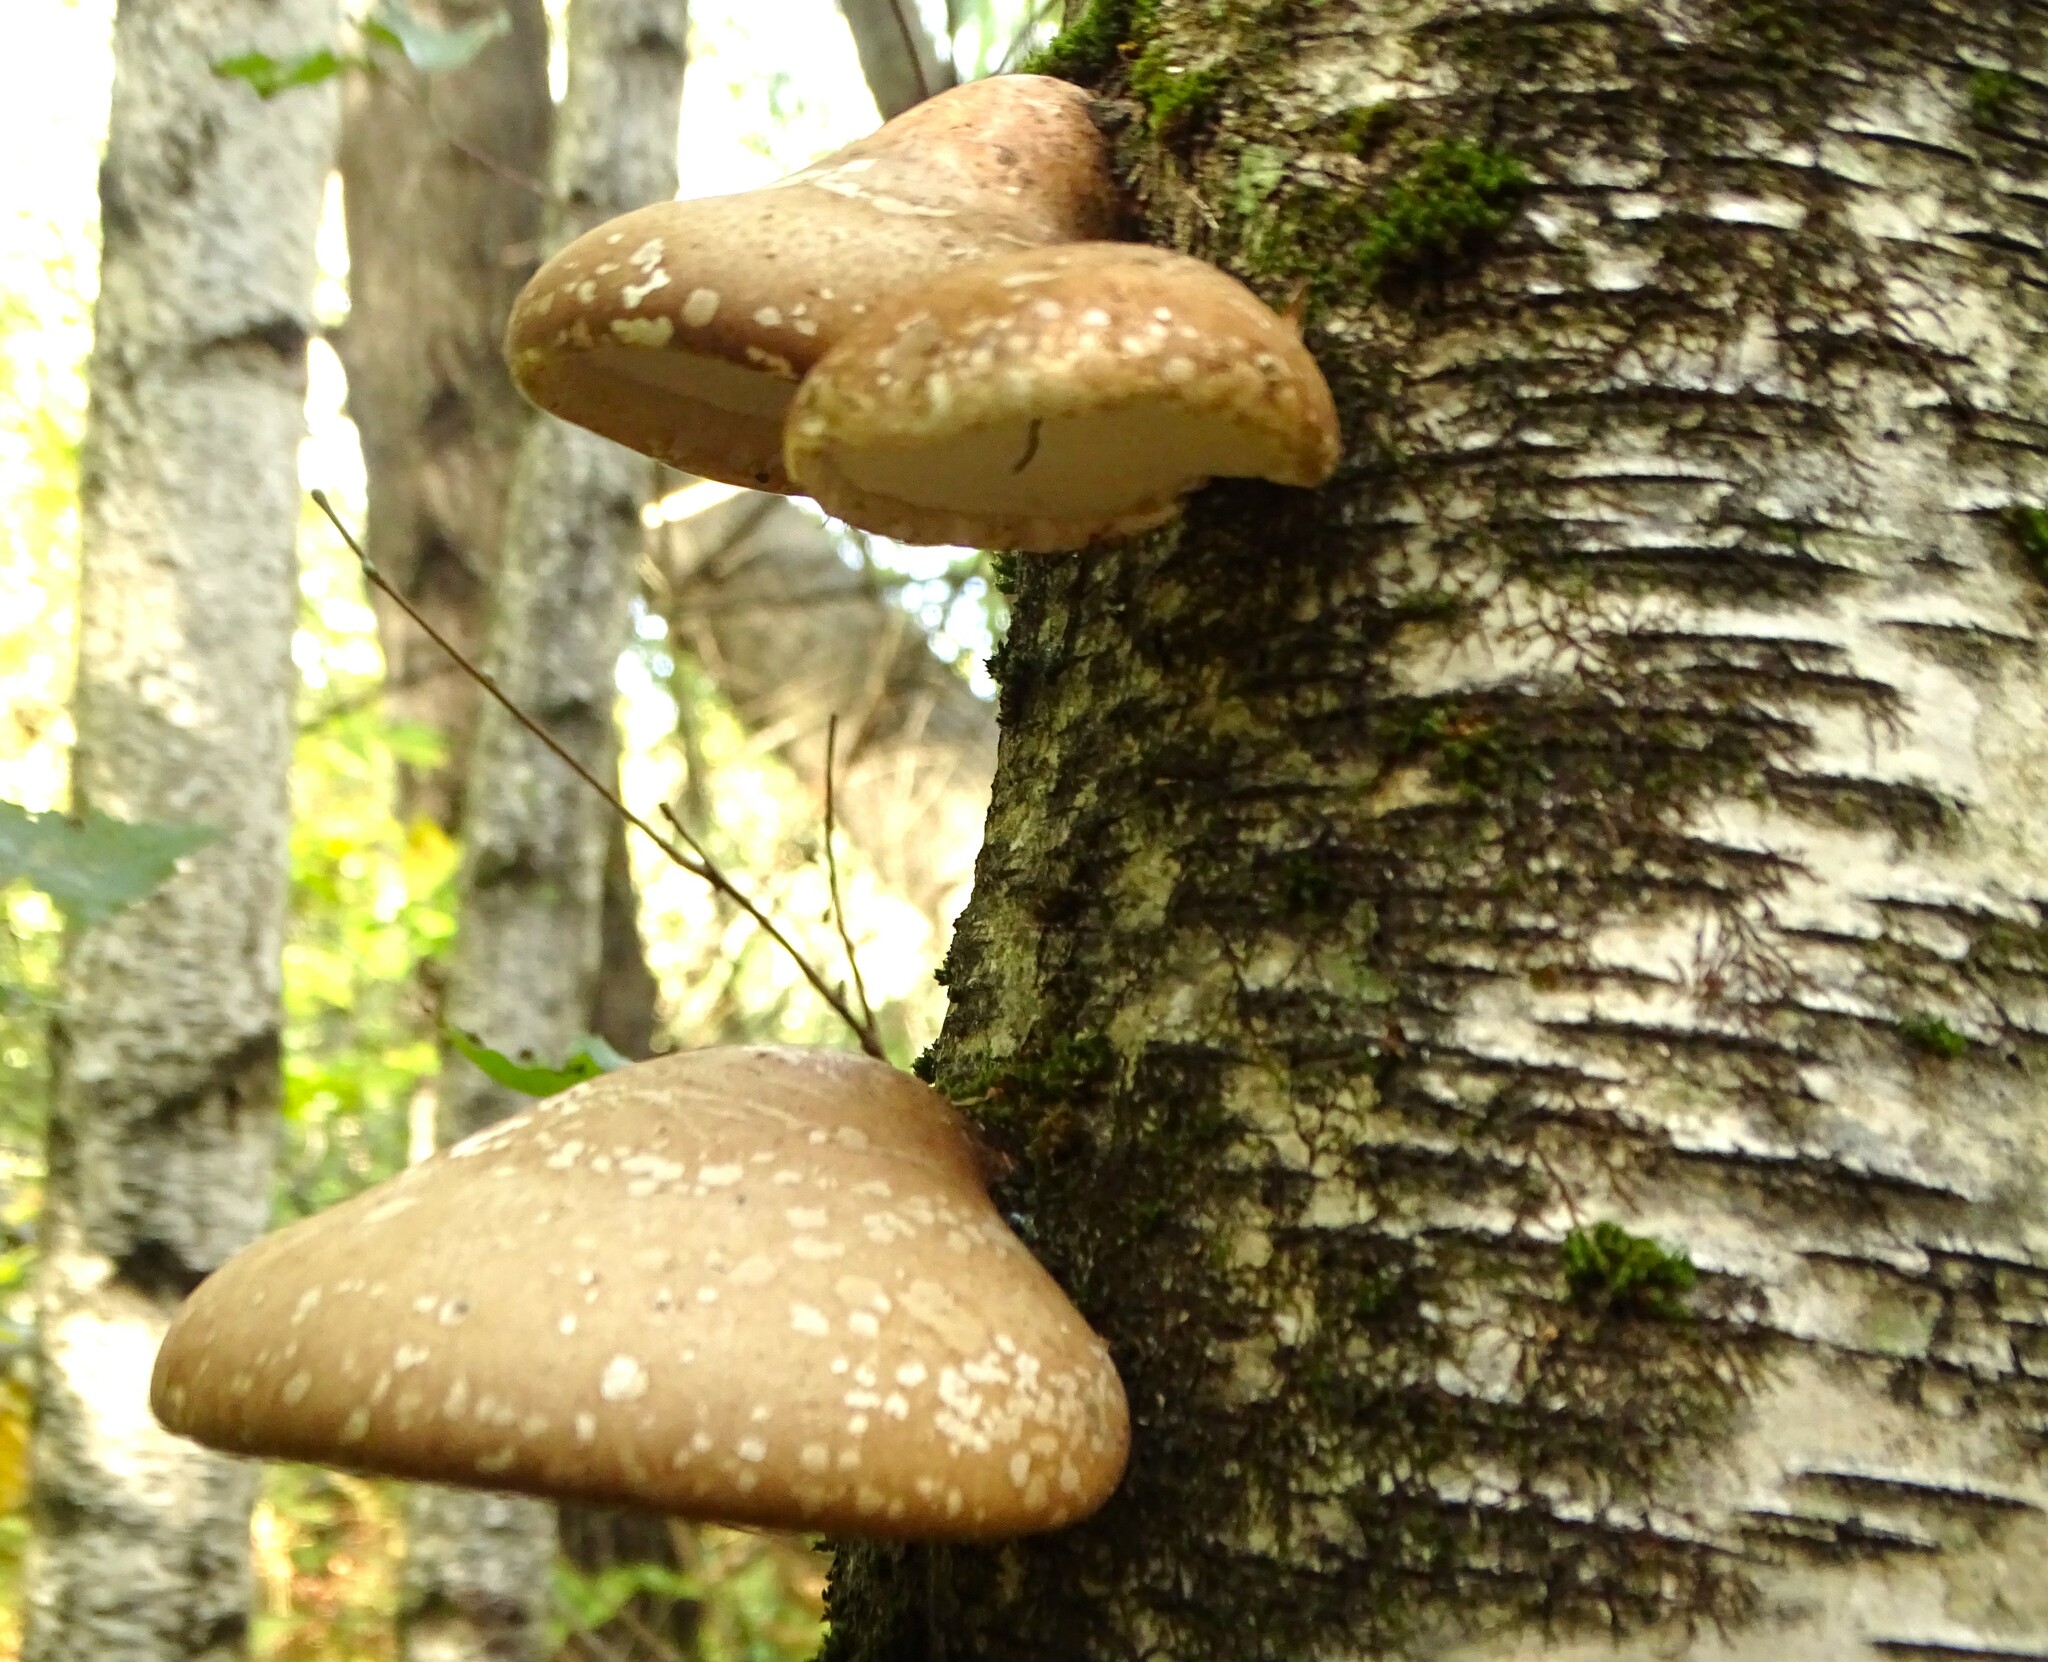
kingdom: Fungi
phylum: Basidiomycota
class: Agaricomycetes
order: Polyporales
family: Fomitopsidaceae
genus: Fomitopsis
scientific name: Fomitopsis betulina
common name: Birch polypore
